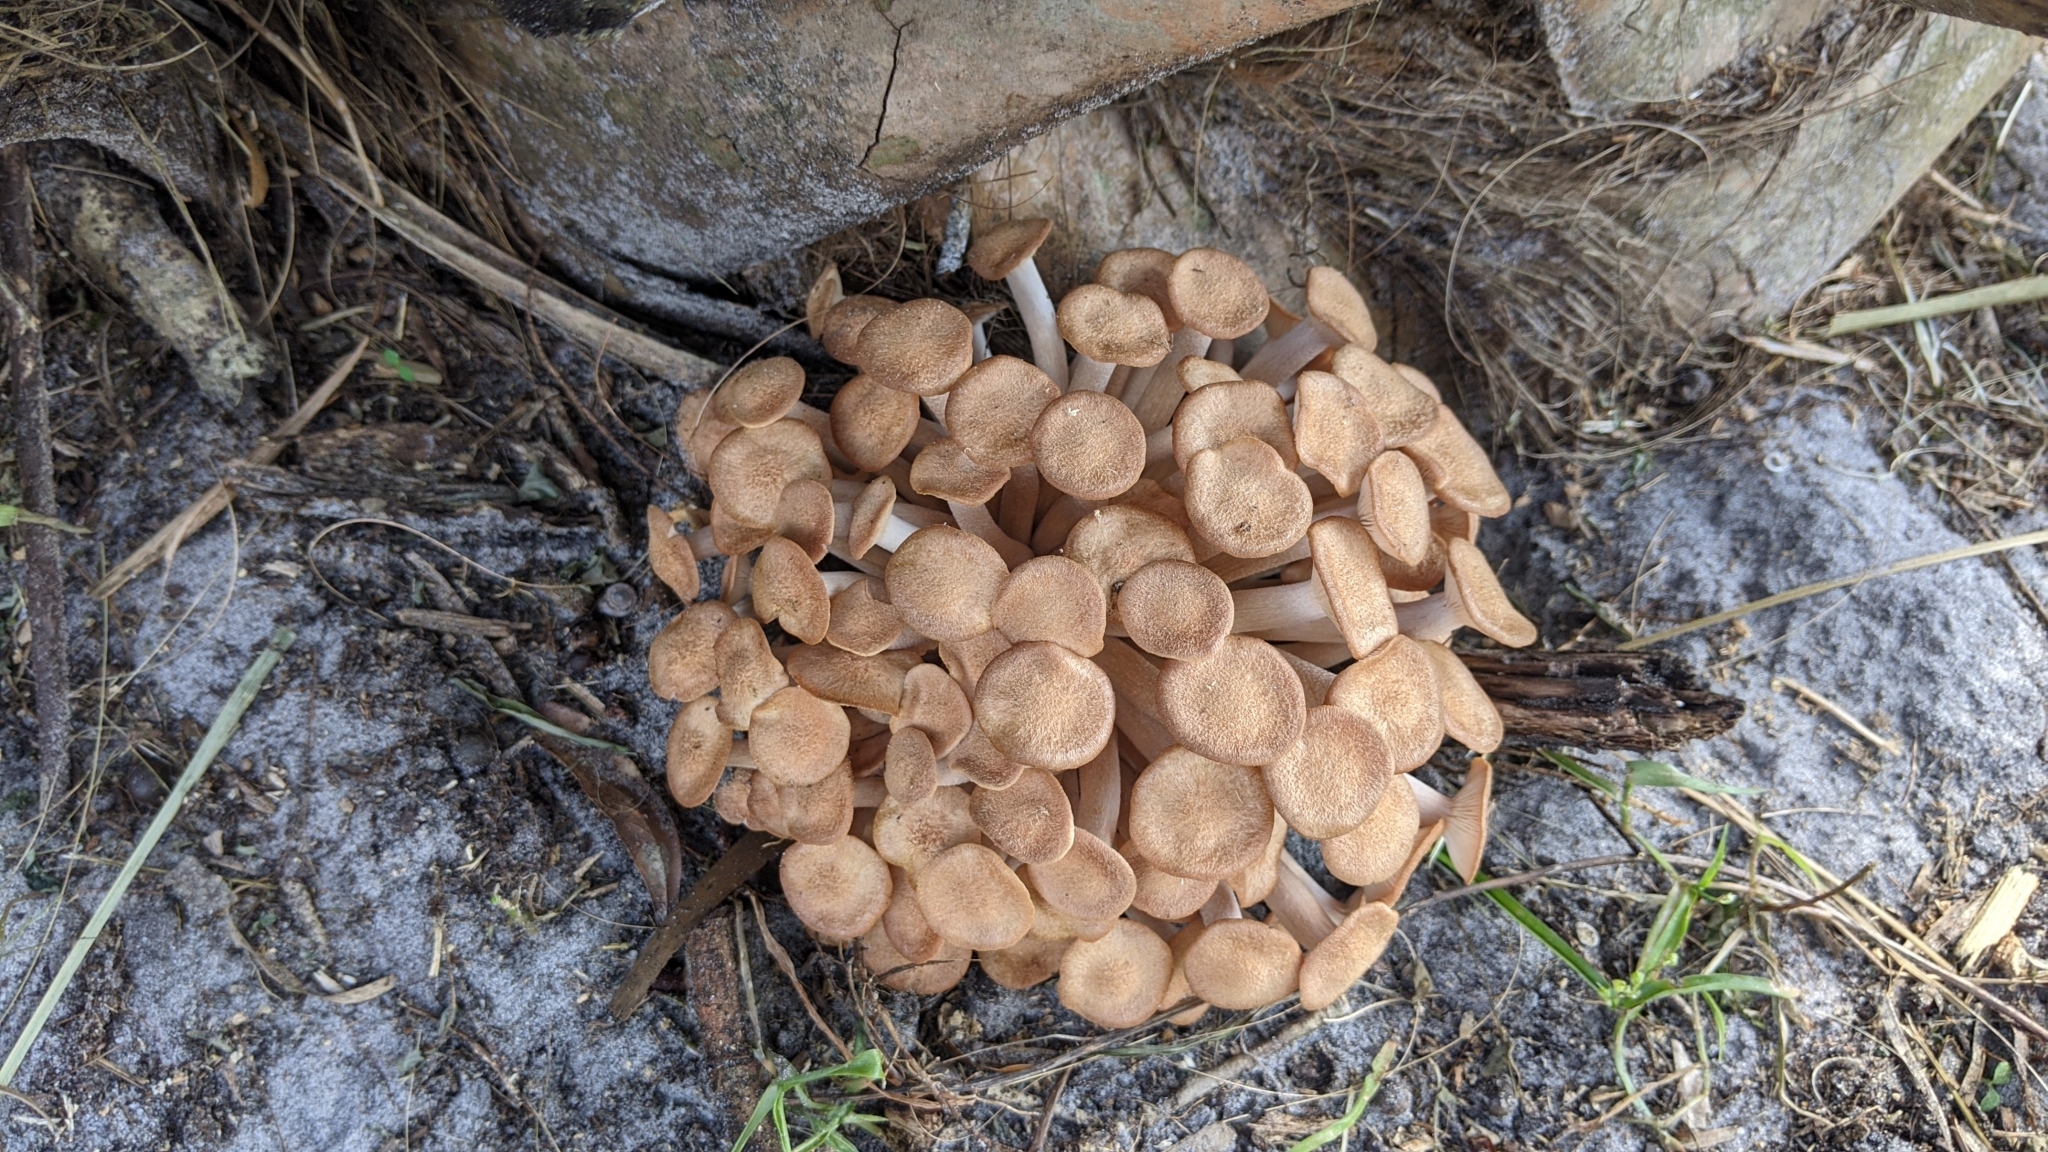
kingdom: Fungi
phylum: Basidiomycota
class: Agaricomycetes
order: Agaricales
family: Physalacriaceae
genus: Desarmillaria
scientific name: Desarmillaria caespitosa
